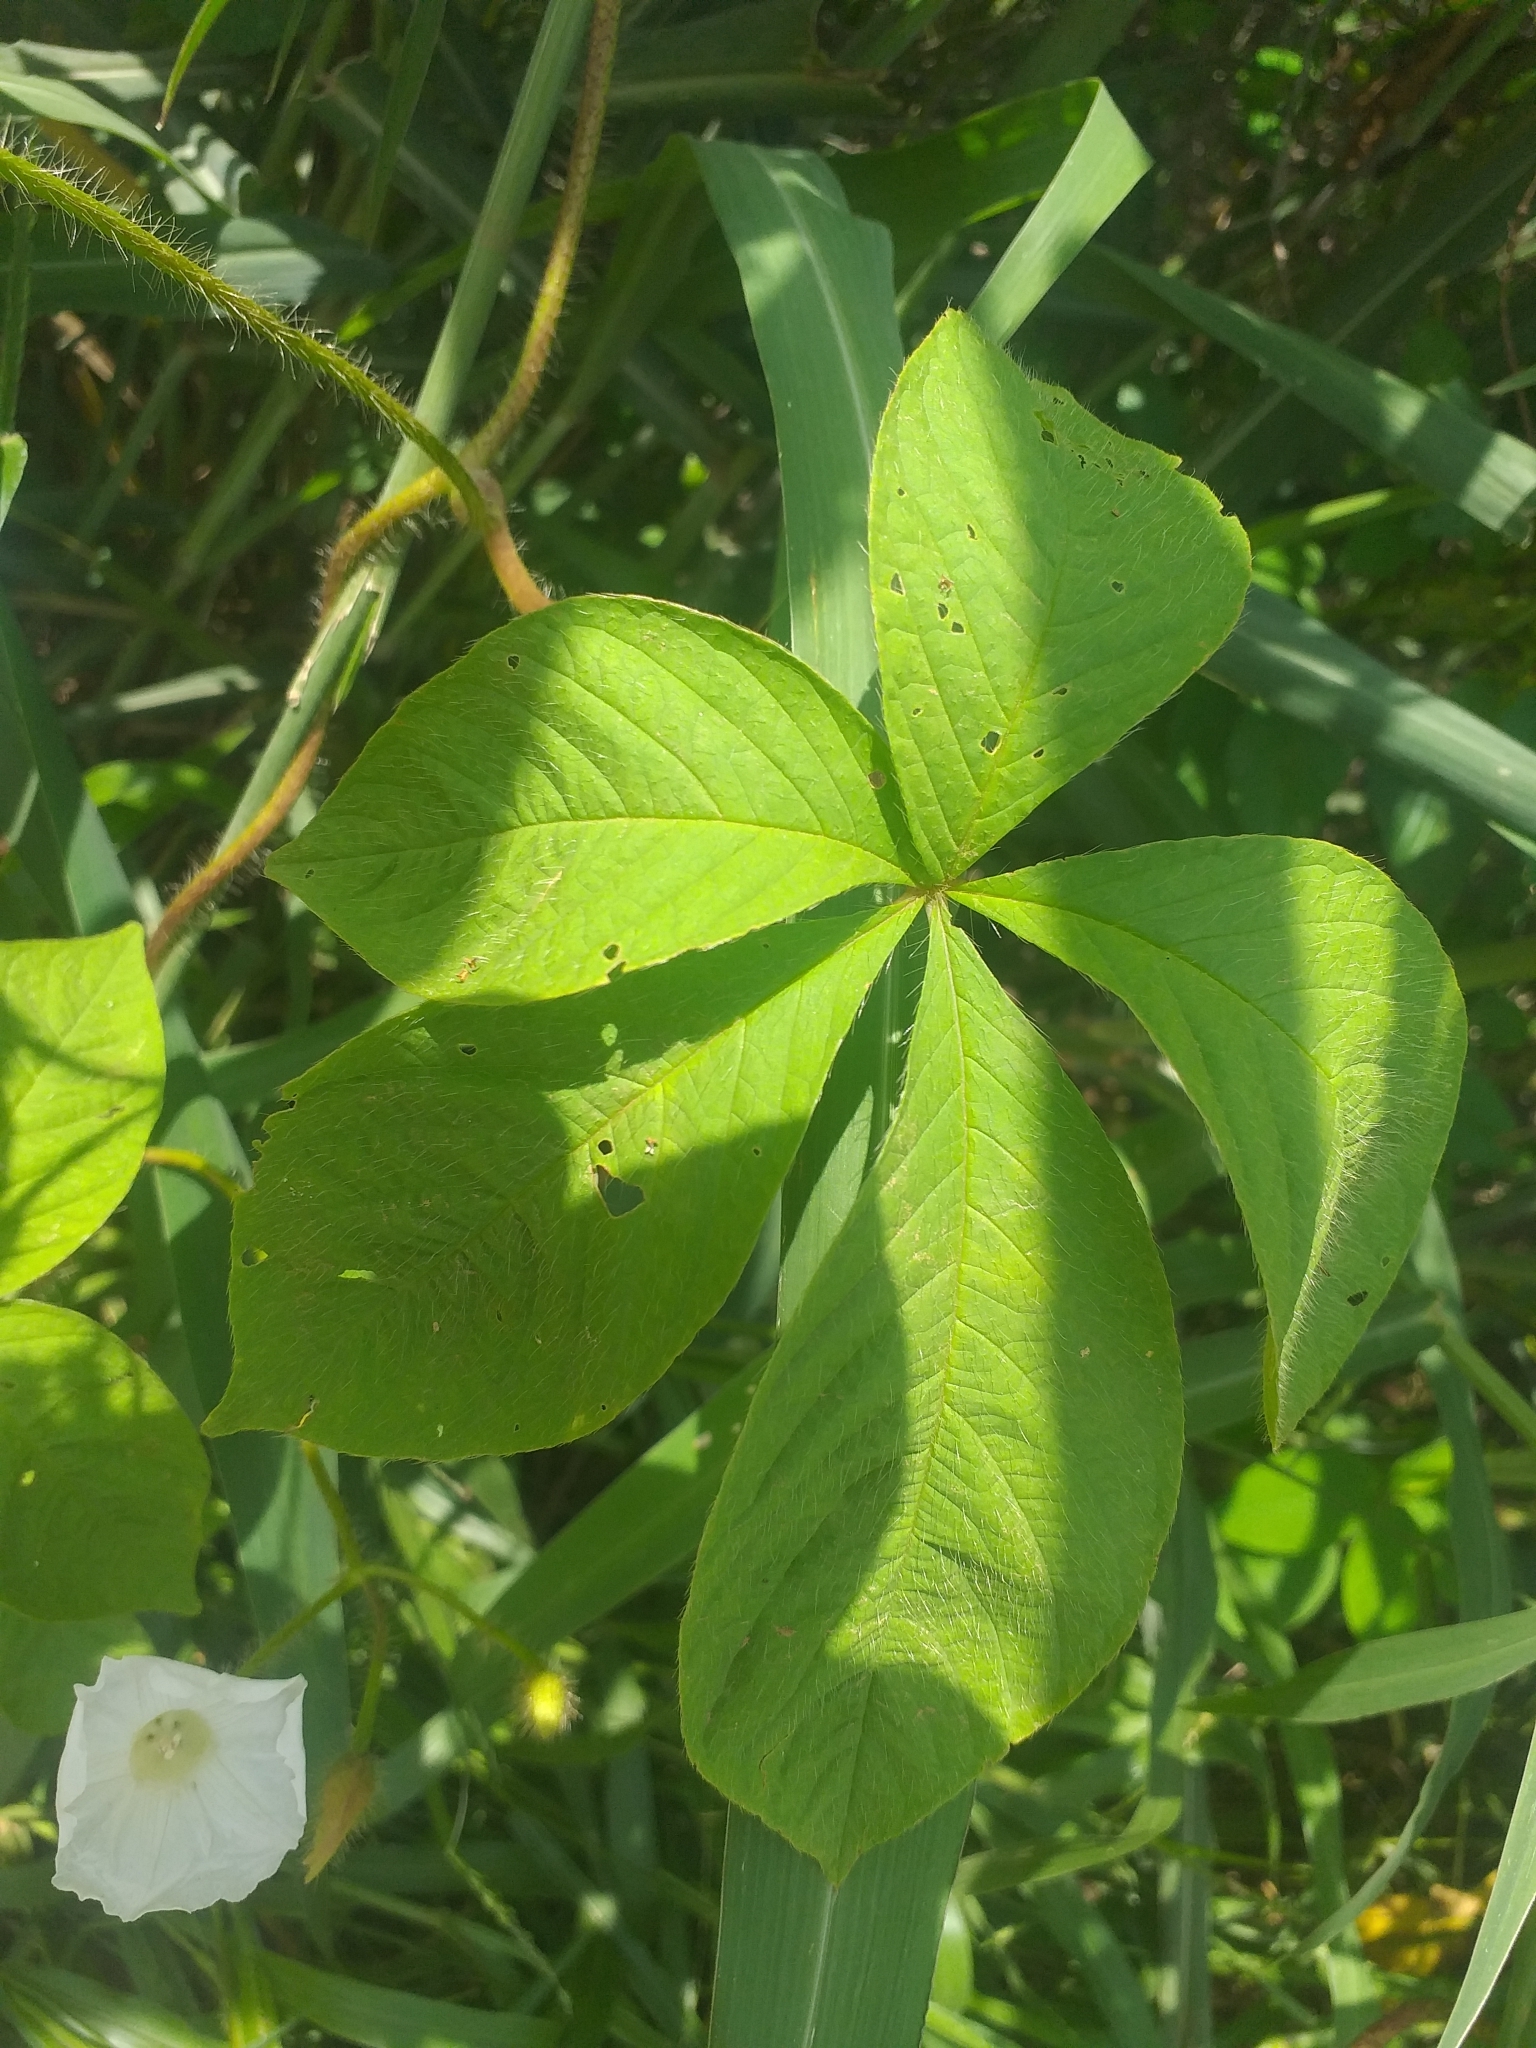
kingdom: Plantae
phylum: Tracheophyta
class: Magnoliopsida
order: Solanales
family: Convolvulaceae
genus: Distimake
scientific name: Distimake aegyptius
